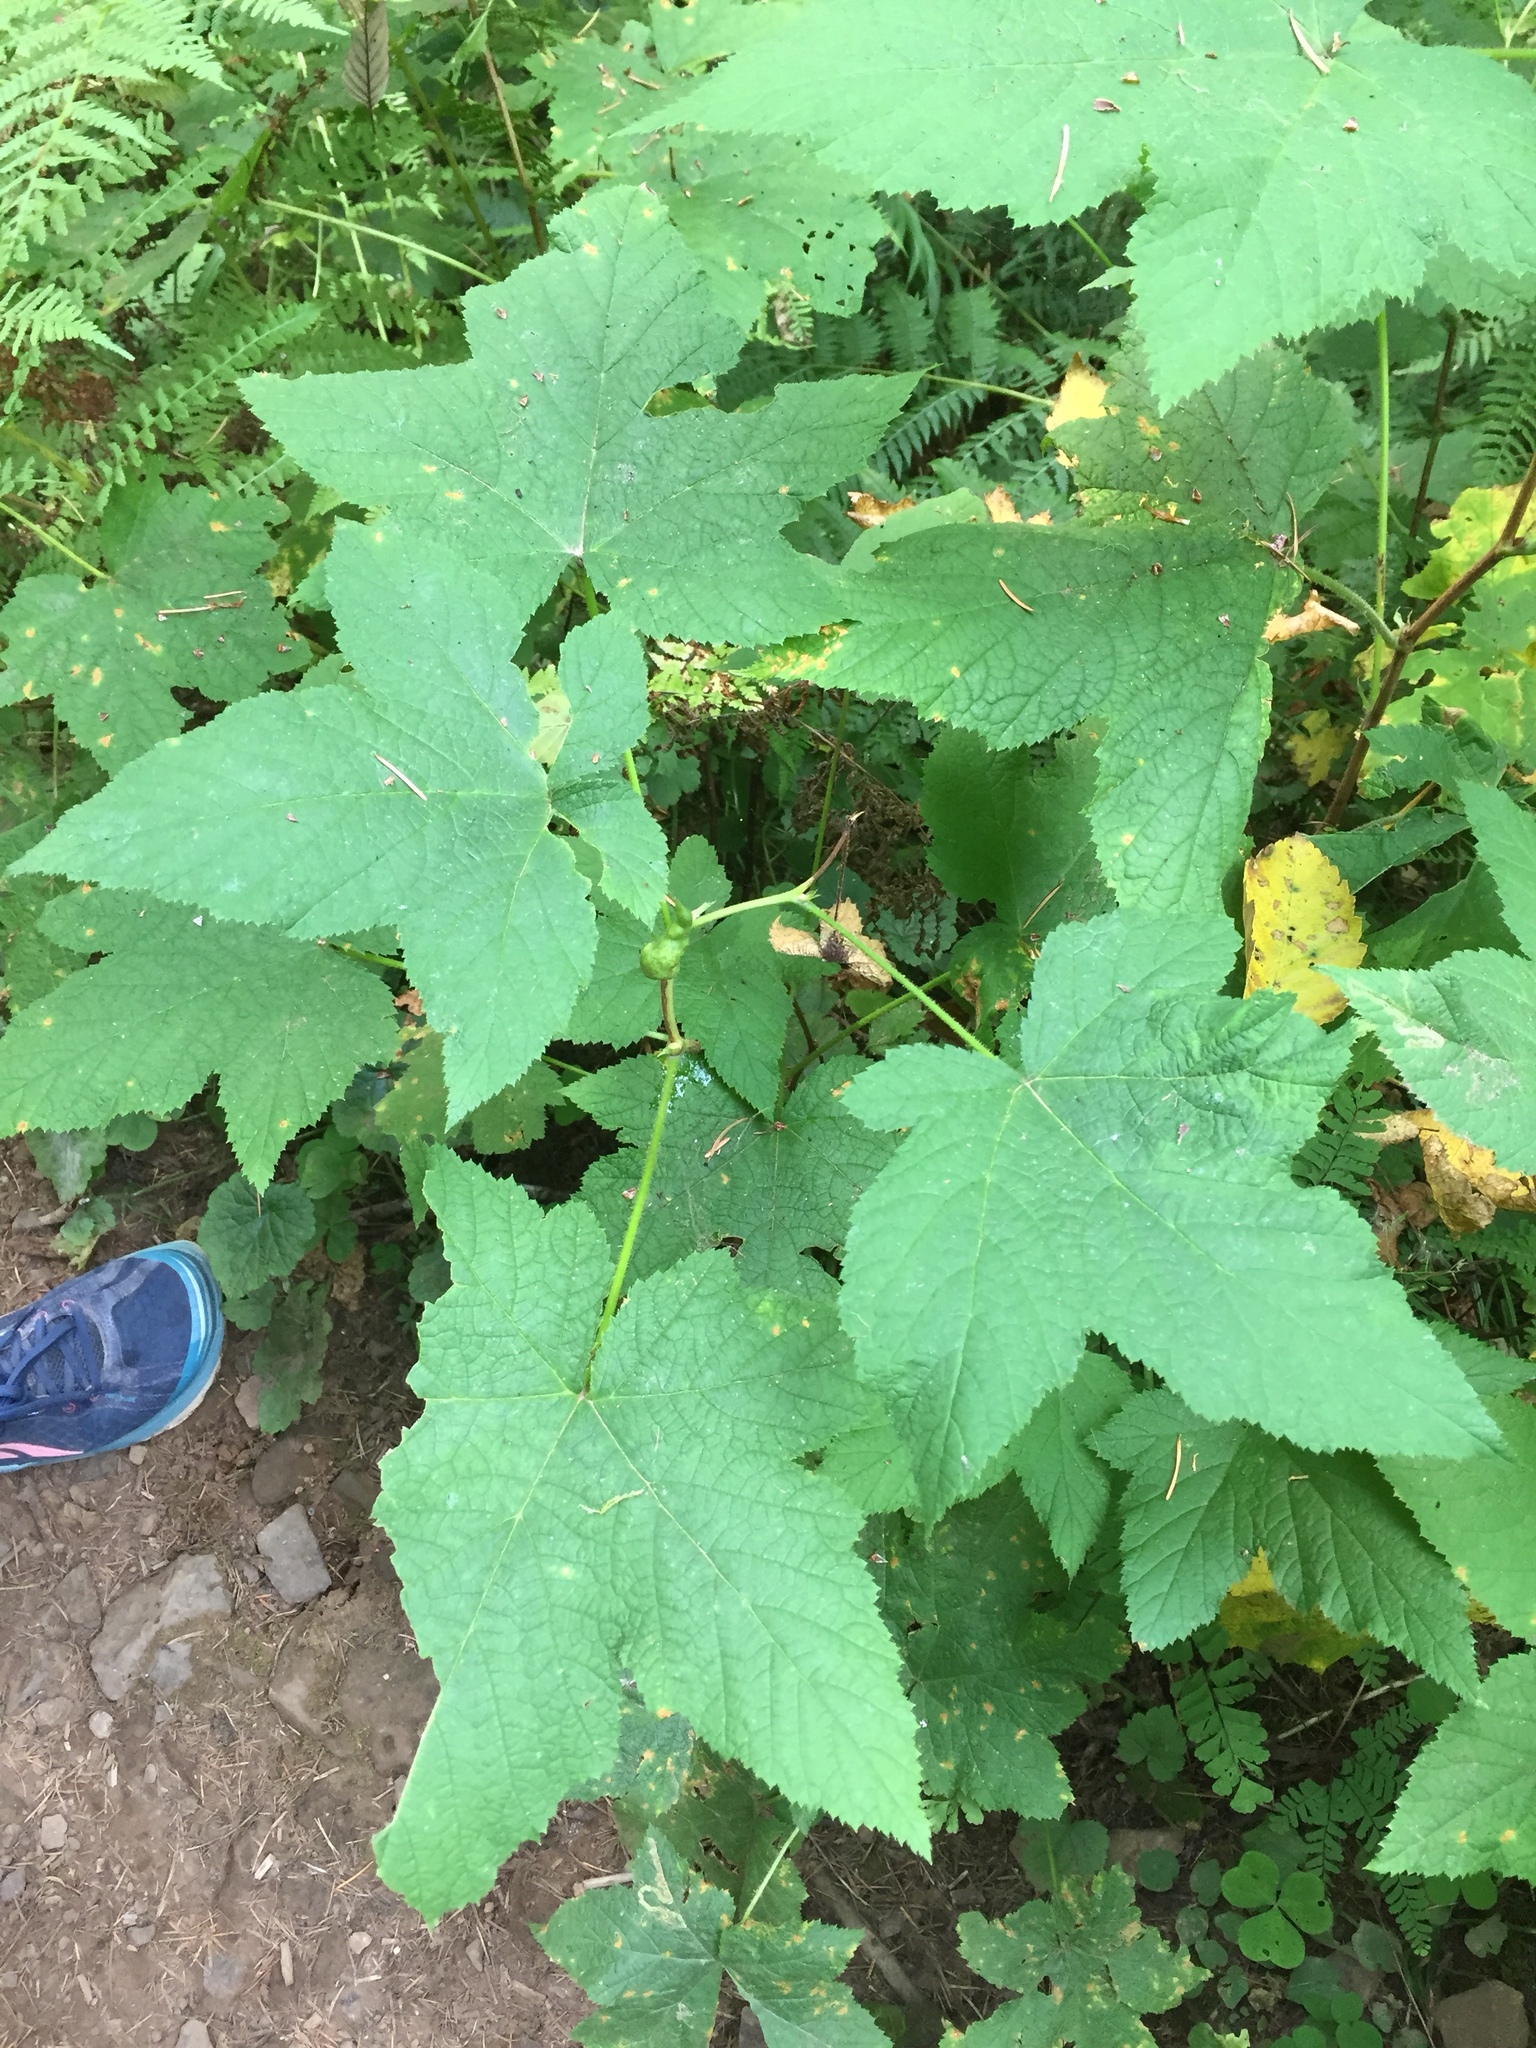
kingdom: Plantae
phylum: Tracheophyta
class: Magnoliopsida
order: Rosales
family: Rosaceae
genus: Rubus
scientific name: Rubus parviflorus
